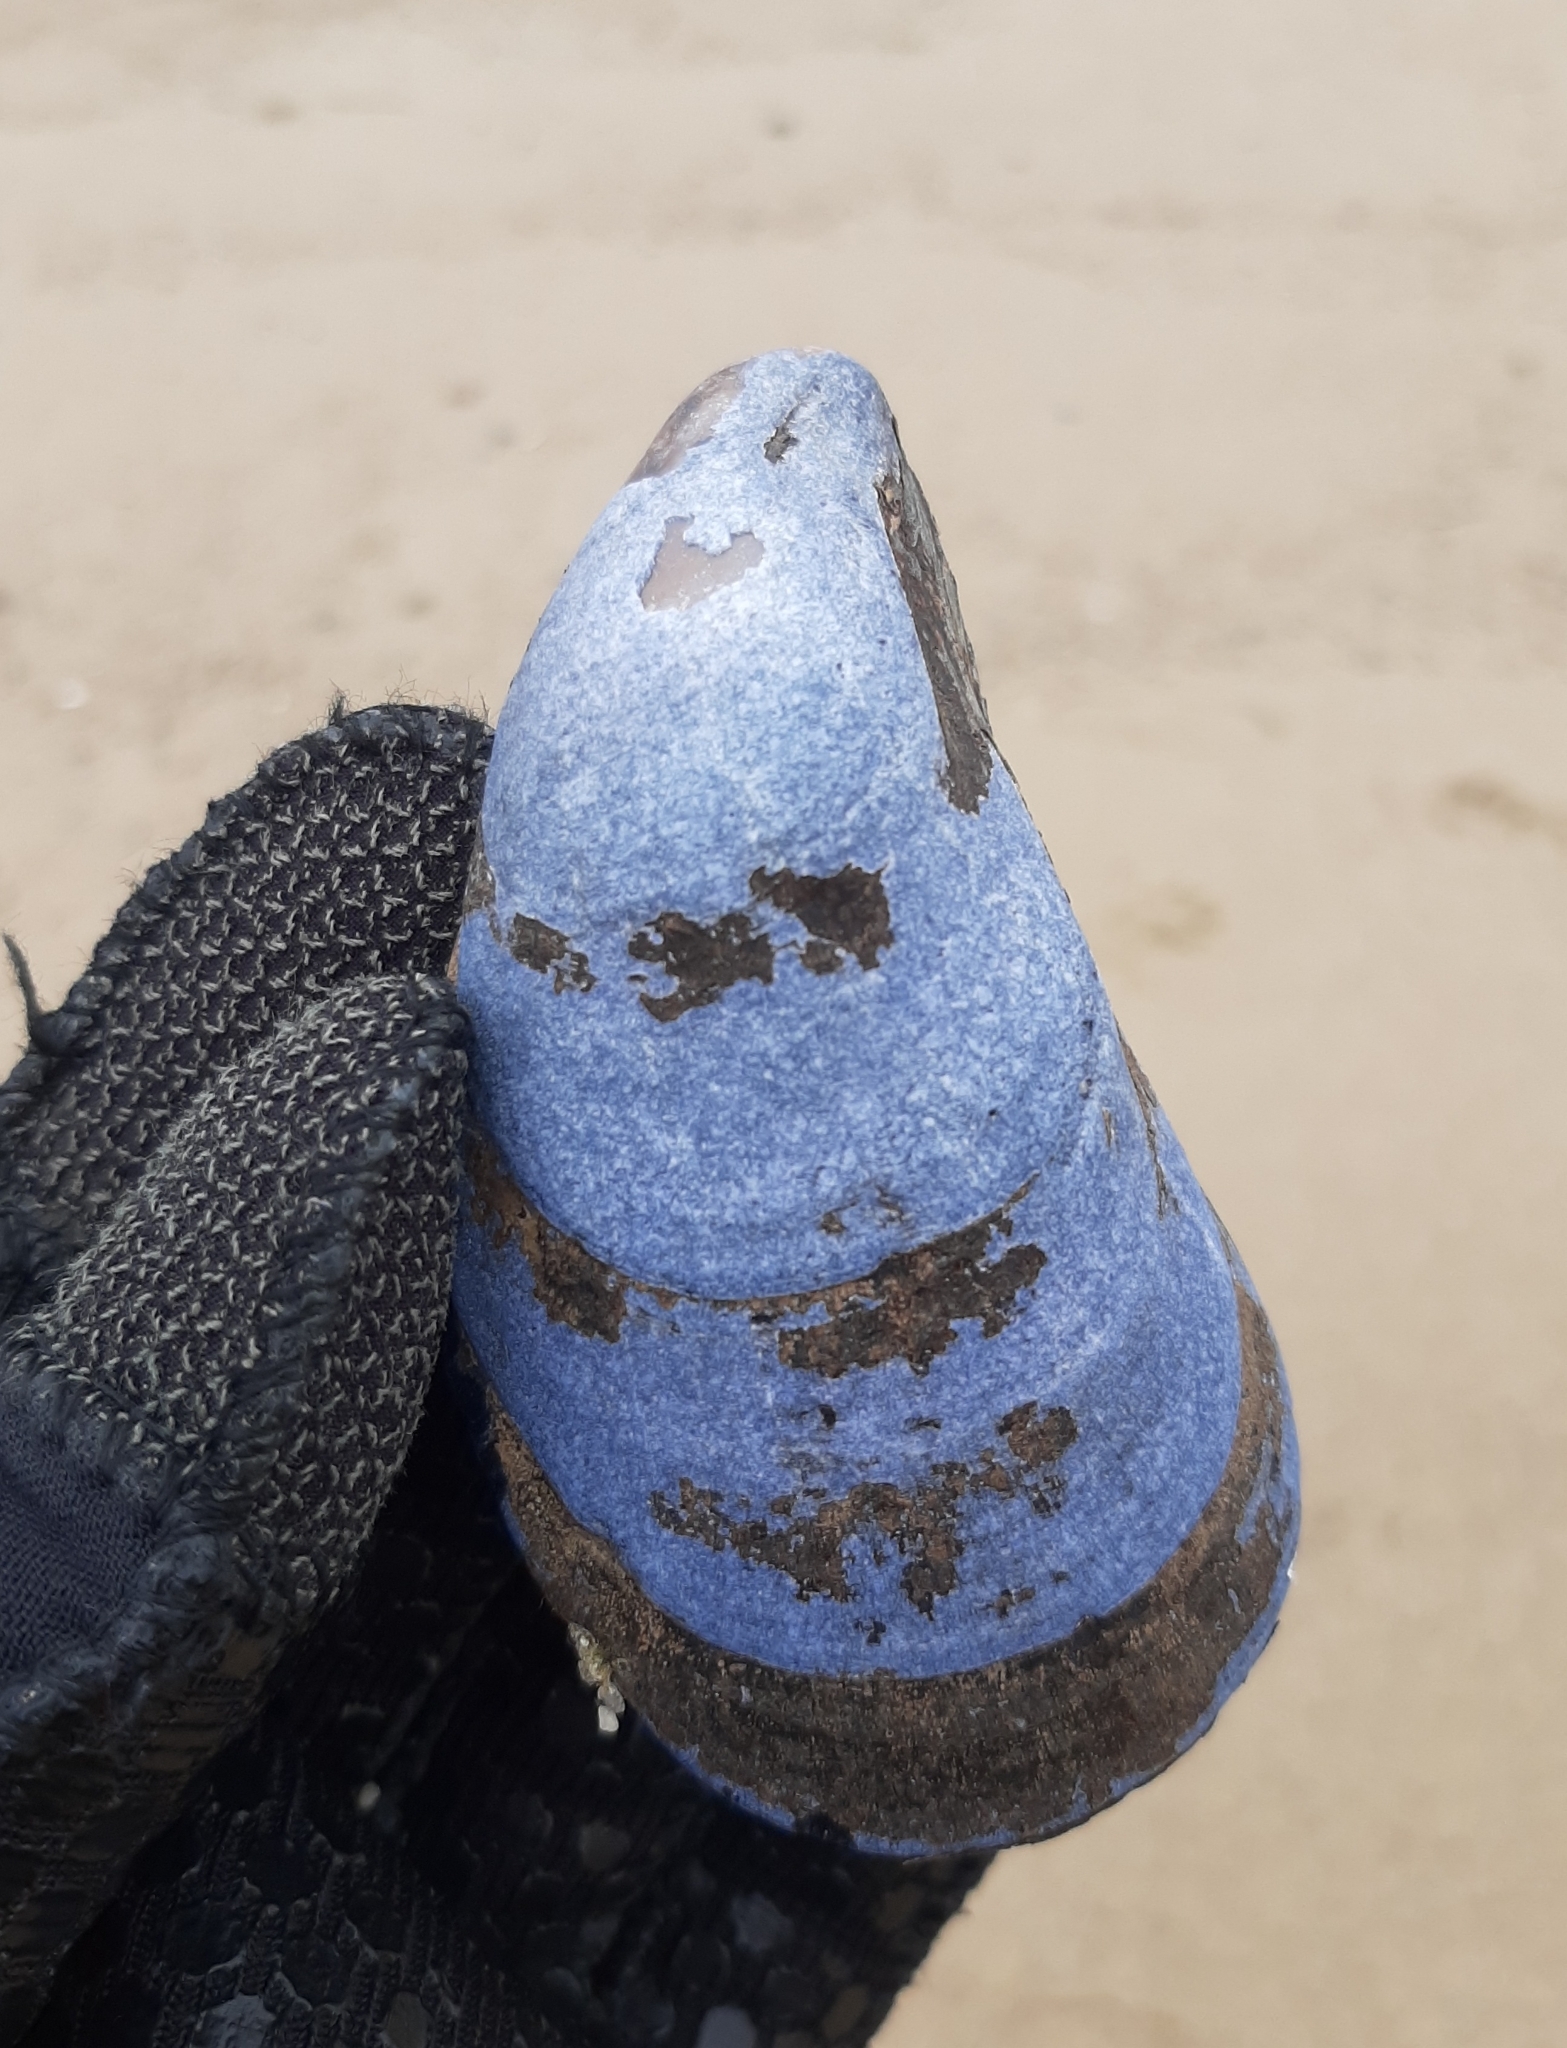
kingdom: Animalia
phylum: Mollusca
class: Bivalvia
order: Mytilida
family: Mytilidae
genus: Mytilus
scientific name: Mytilus edulis
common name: Blue mussel
